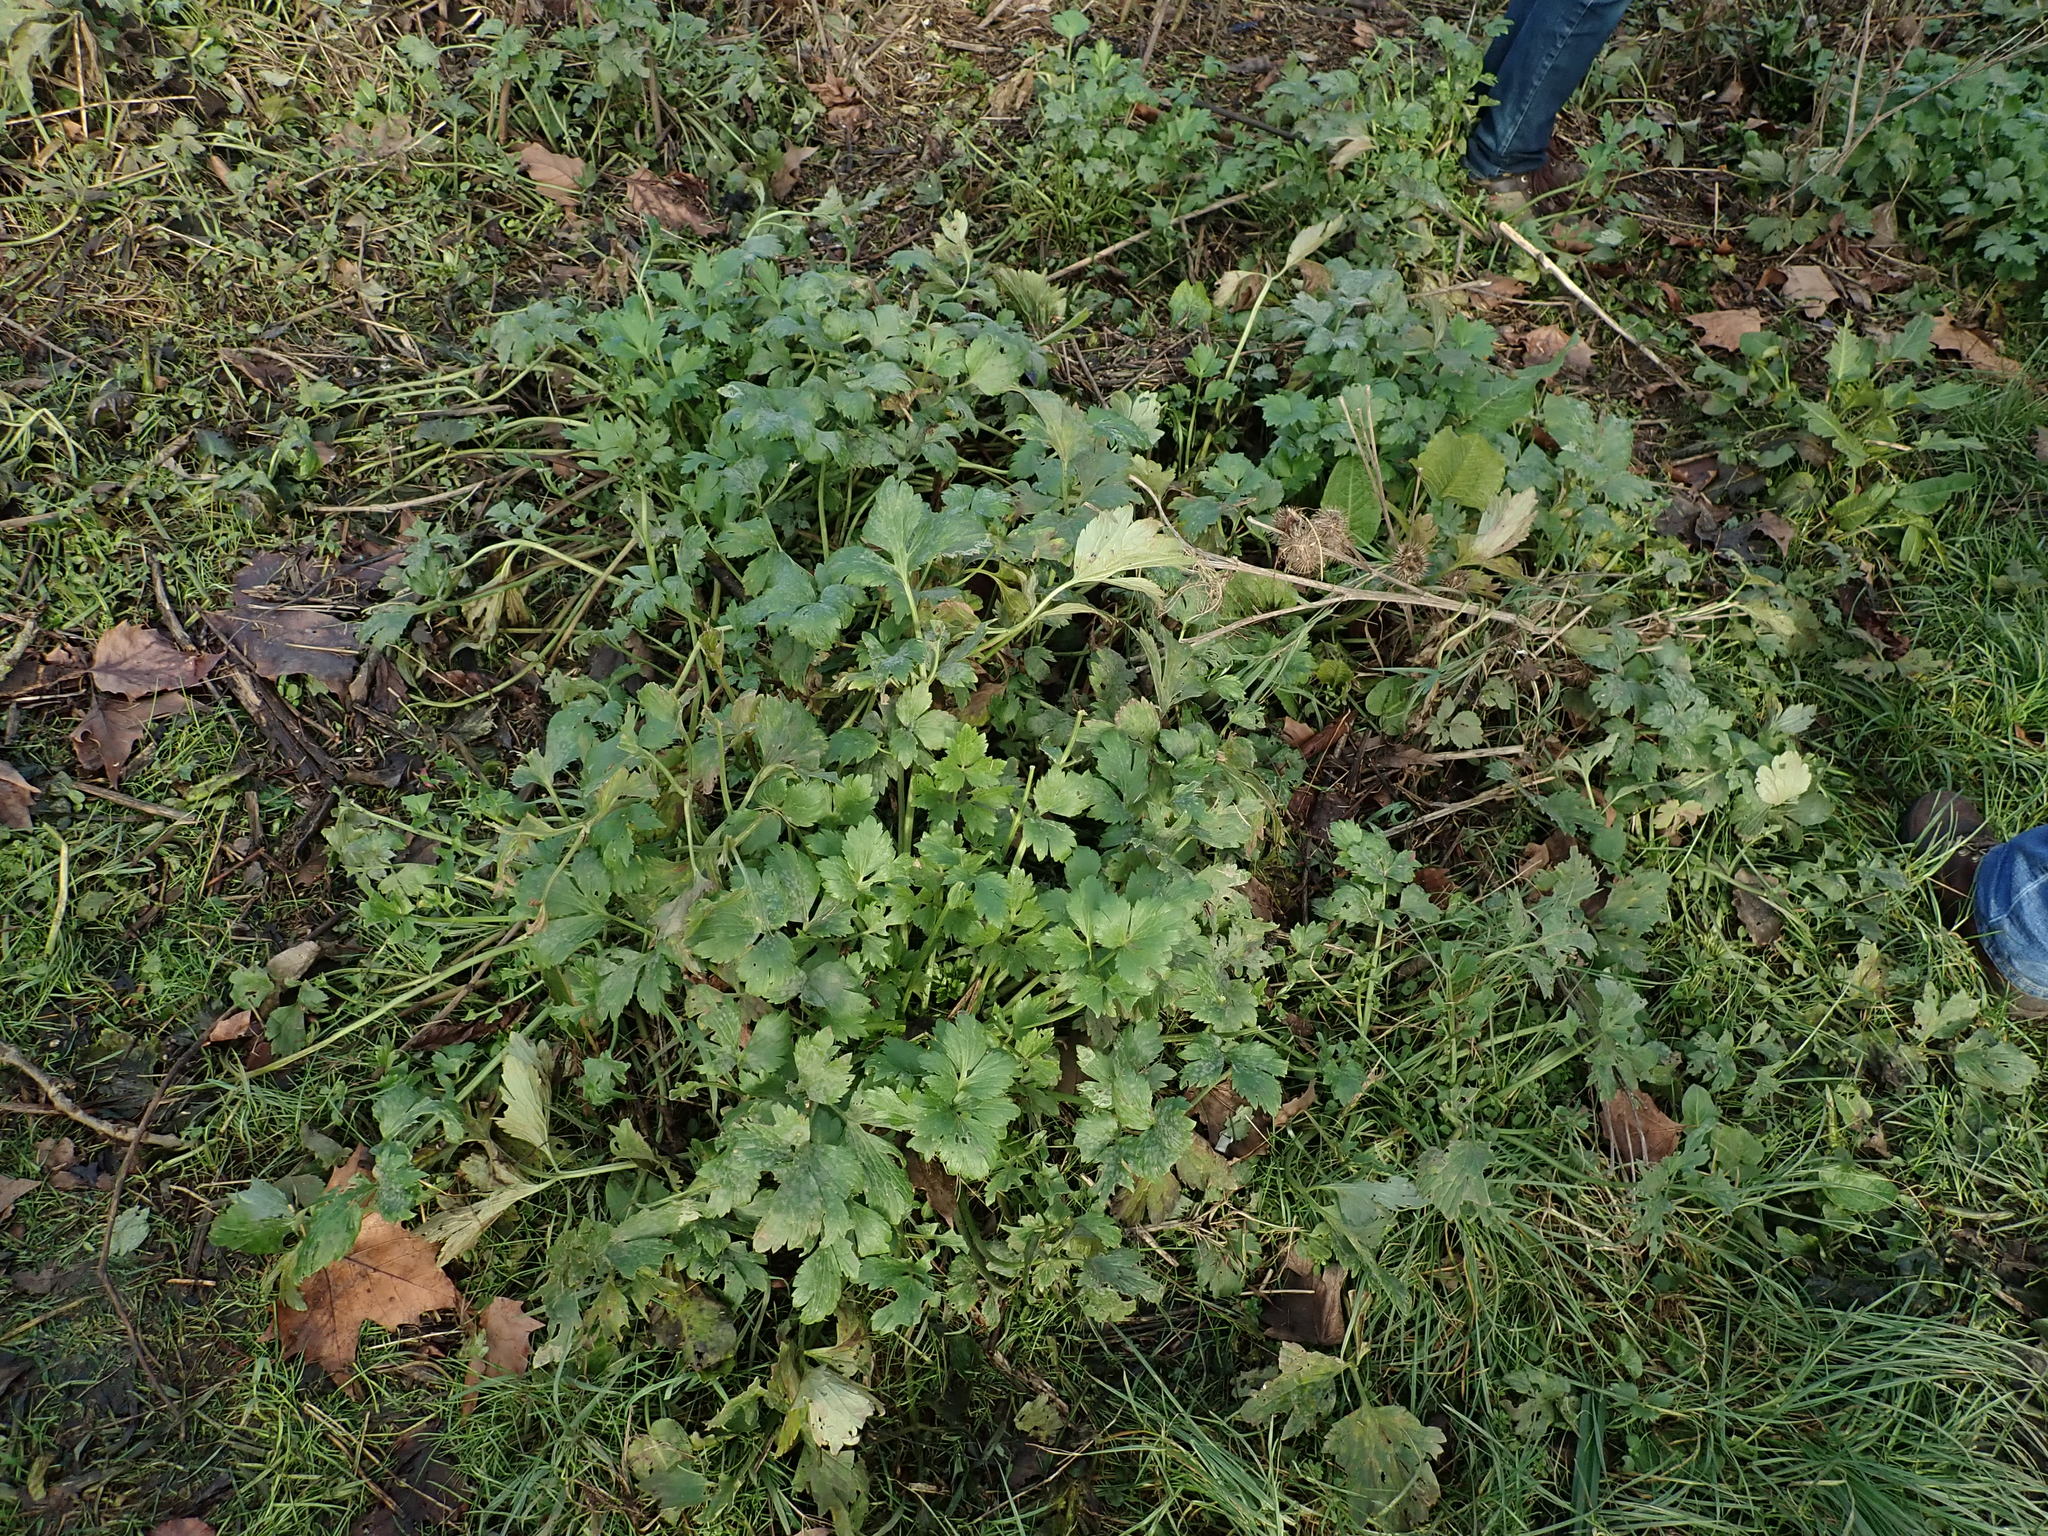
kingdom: Plantae
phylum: Tracheophyta
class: Magnoliopsida
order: Ranunculales
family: Ranunculaceae
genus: Ranunculus
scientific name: Ranunculus repens
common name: Creeping buttercup
